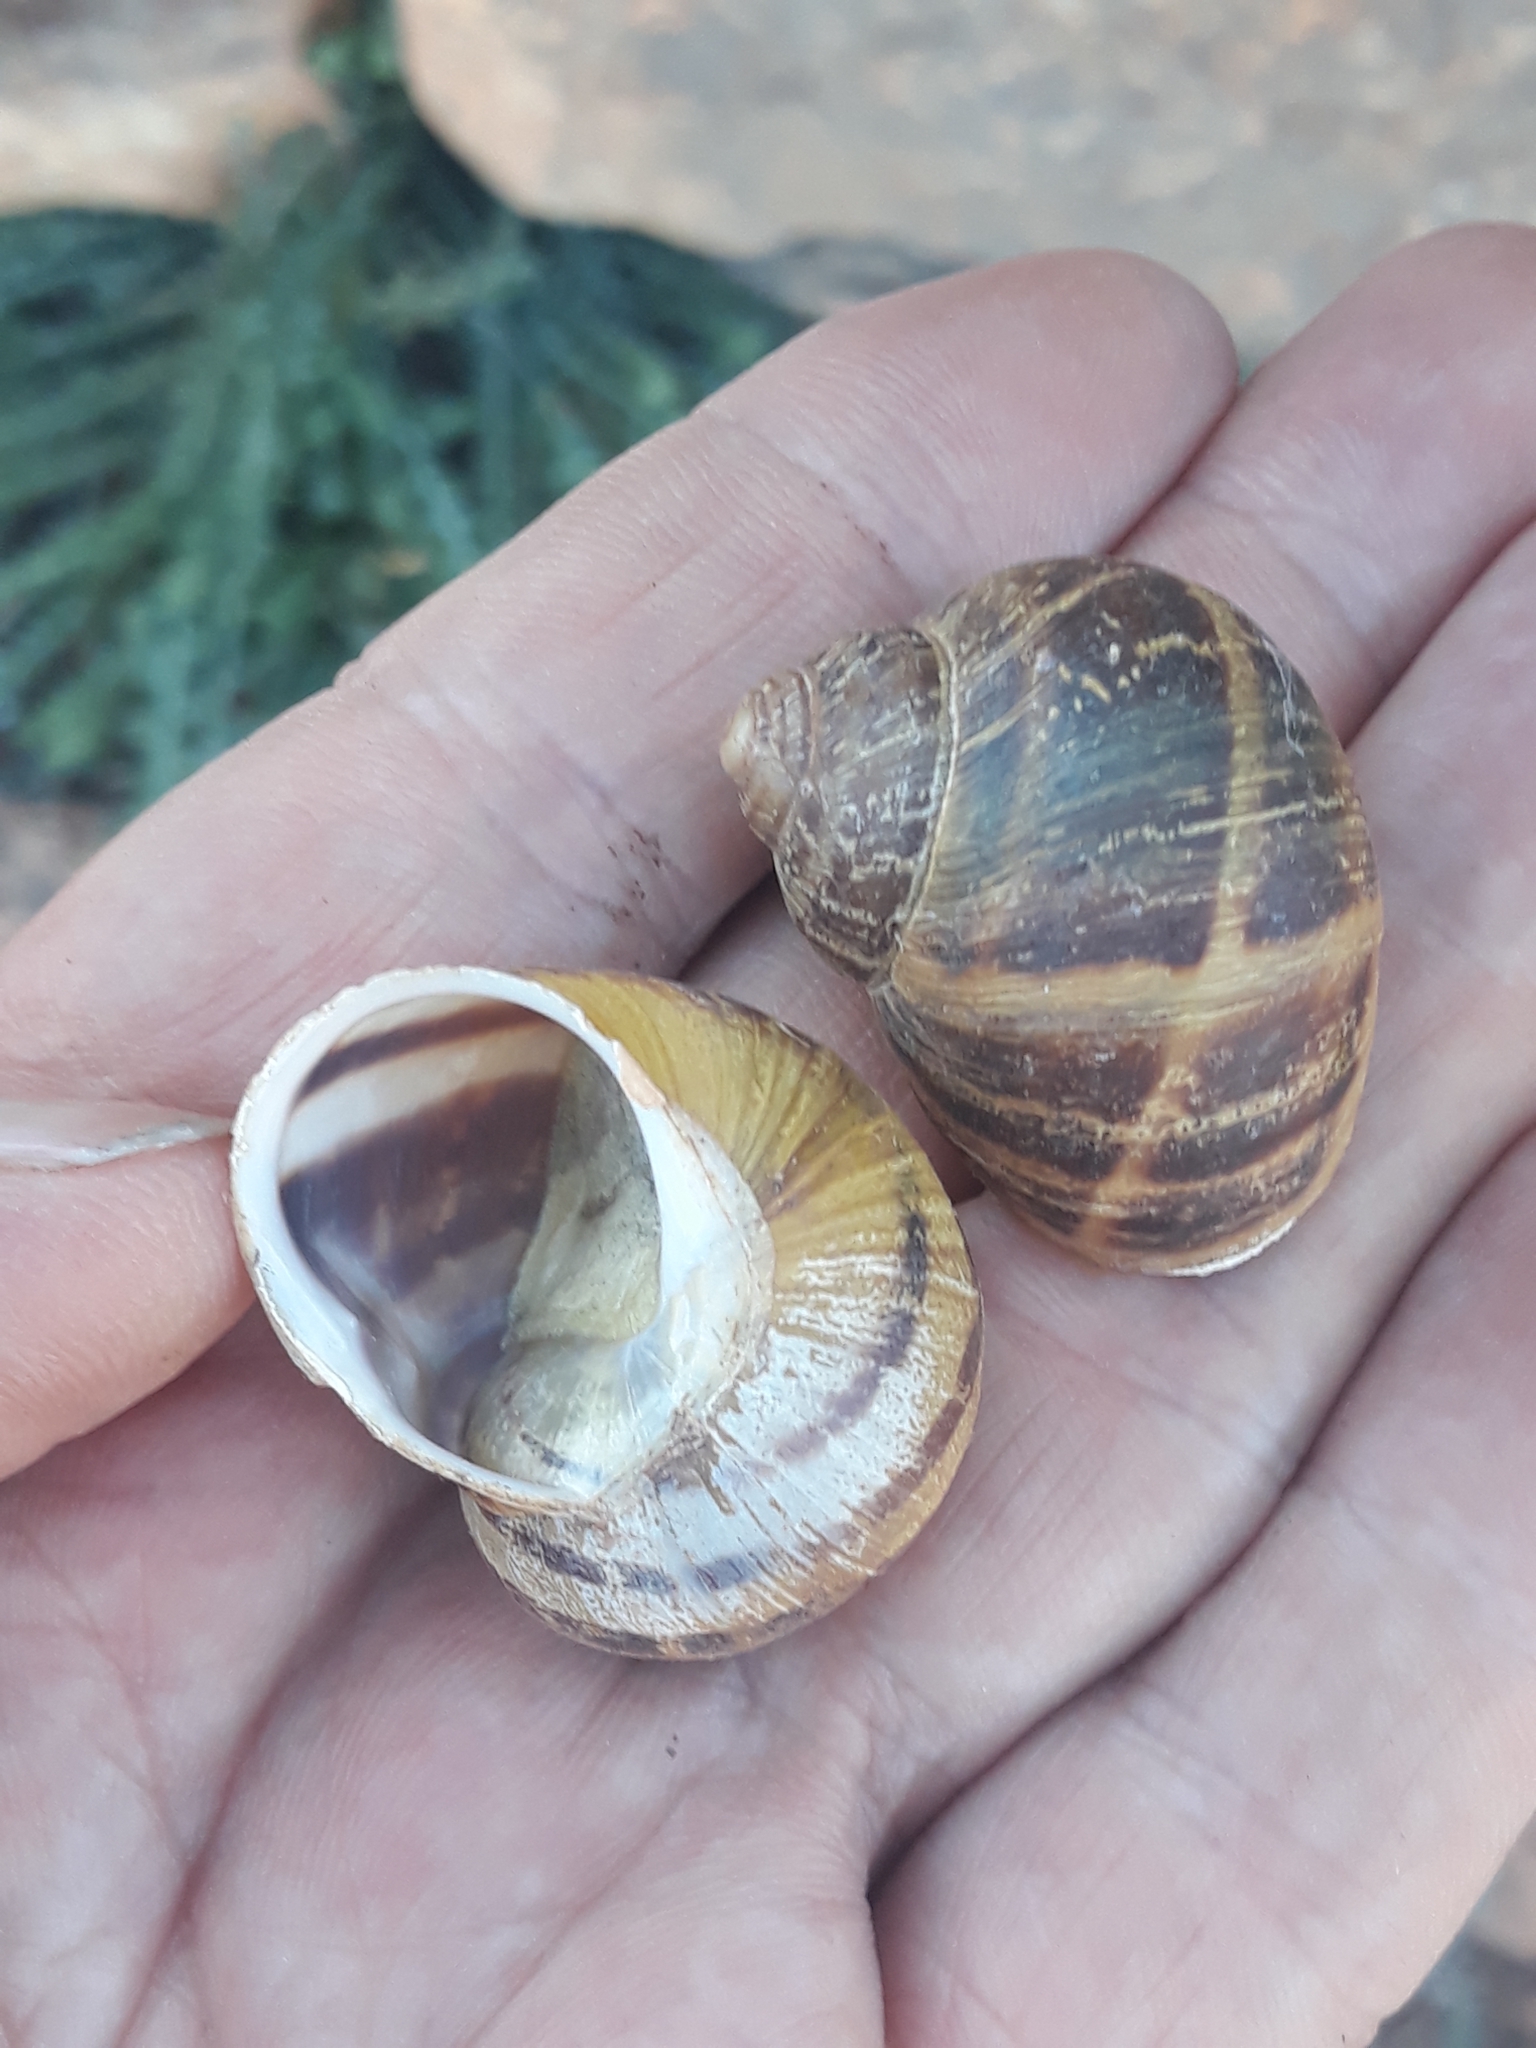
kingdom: Animalia
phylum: Mollusca
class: Gastropoda
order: Stylommatophora
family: Helicidae
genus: Cornu
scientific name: Cornu aspersum
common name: Brown garden snail
